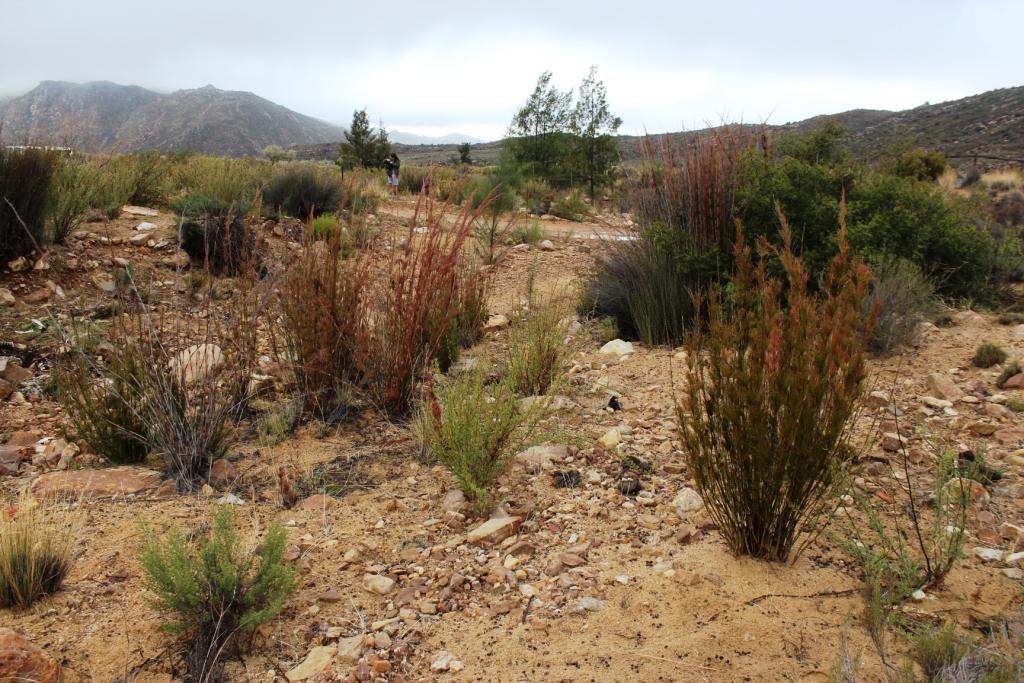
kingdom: Plantae
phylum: Tracheophyta
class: Liliopsida
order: Poales
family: Restionaceae
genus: Rhodocoma
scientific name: Rhodocoma capensis
